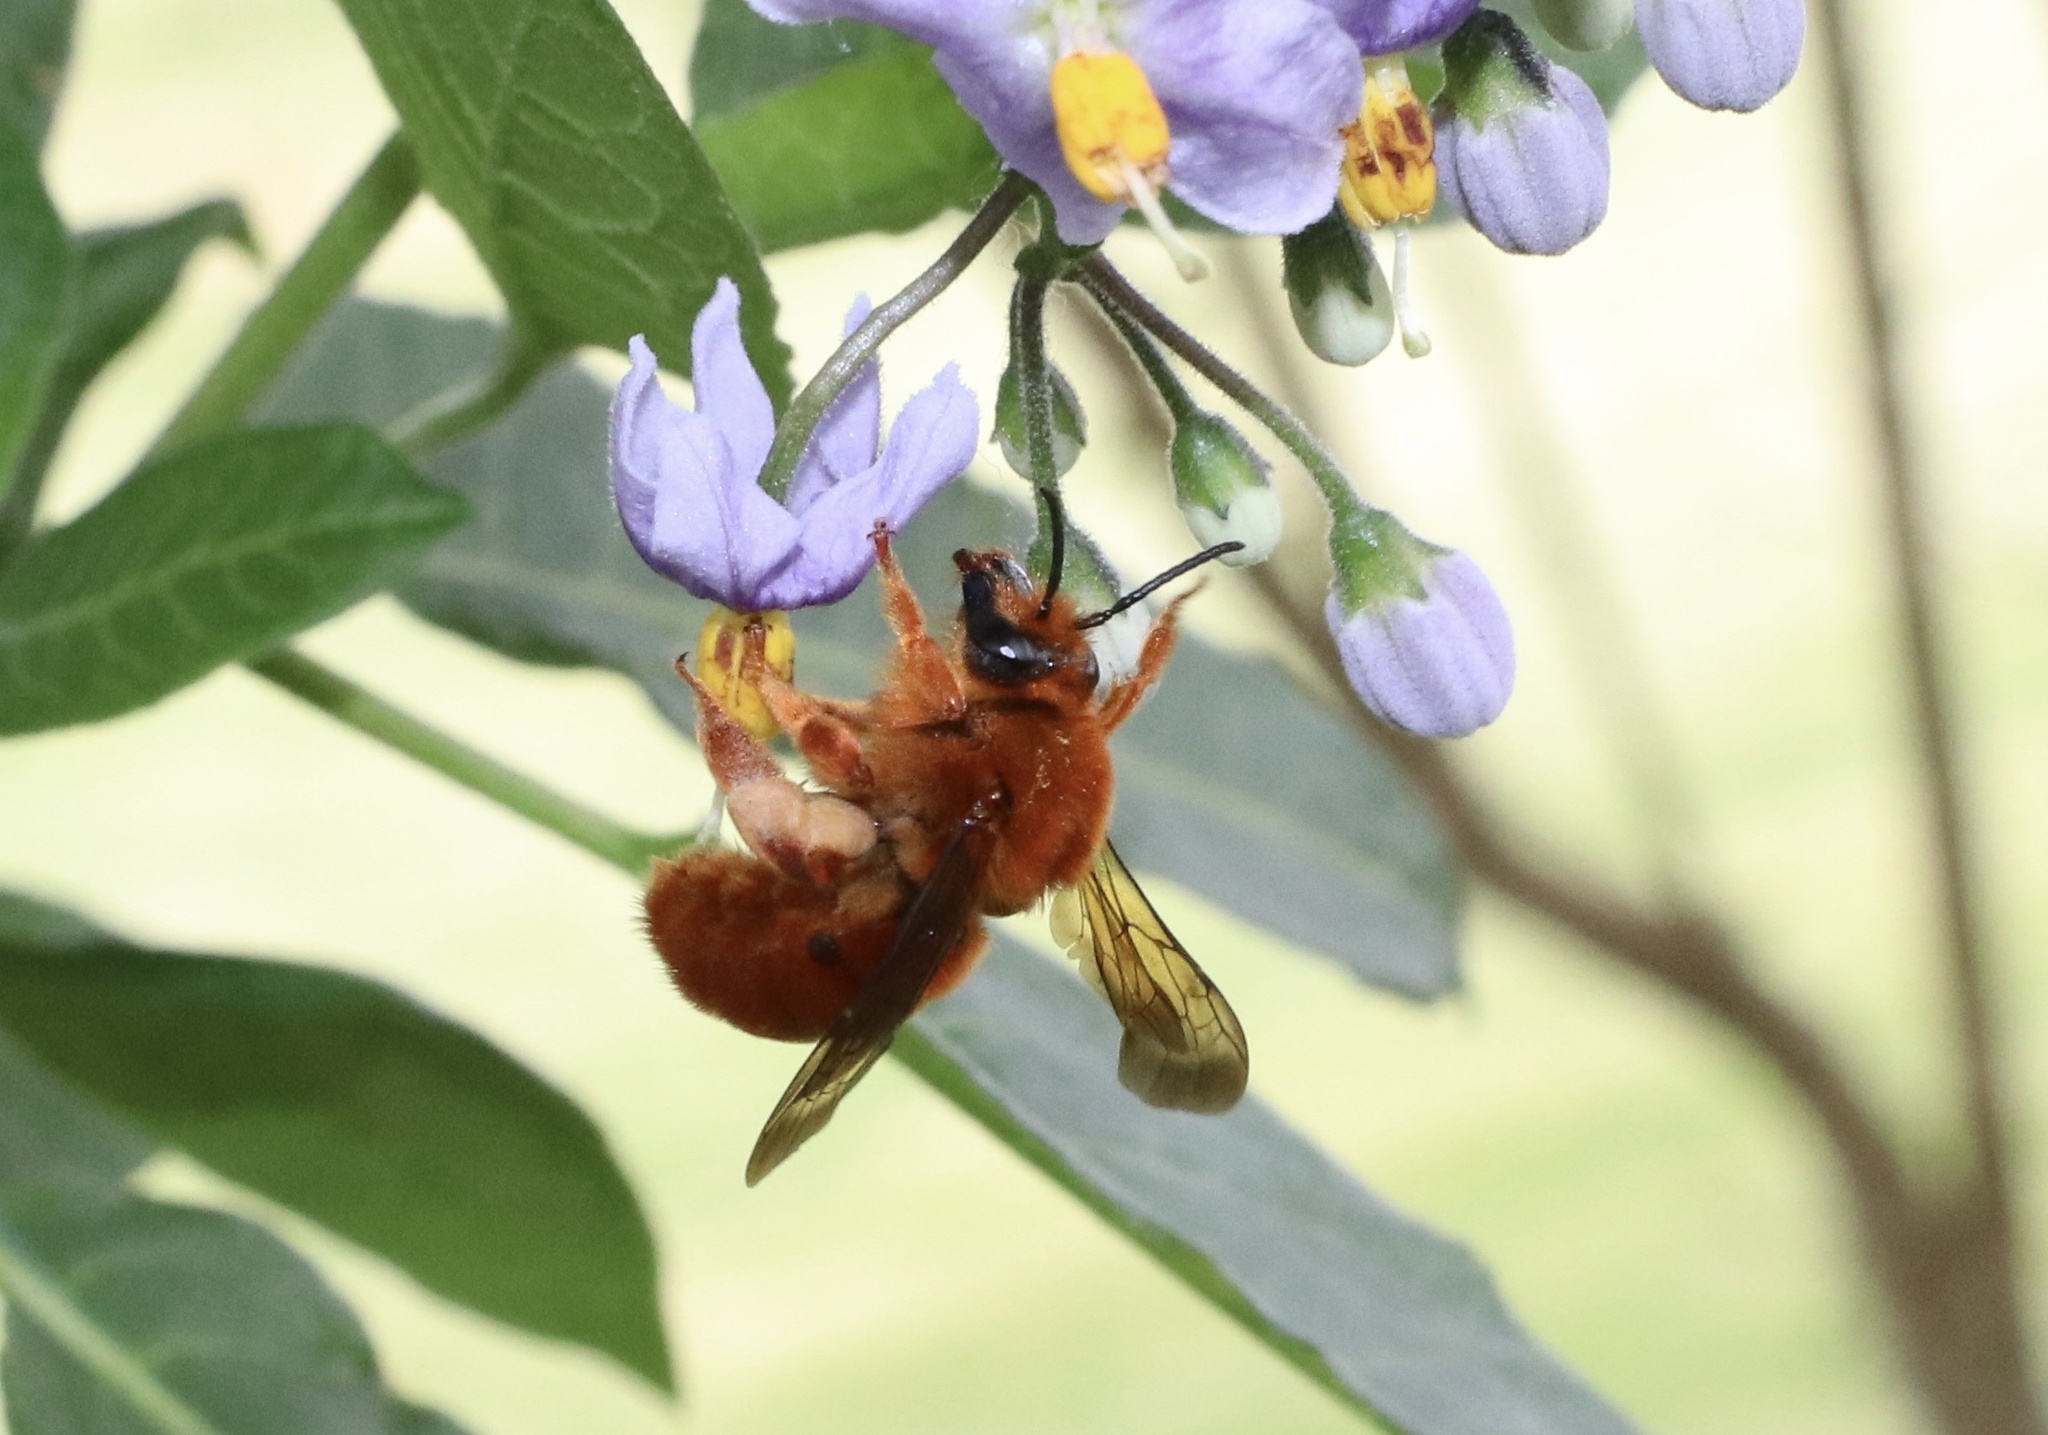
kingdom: Animalia
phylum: Arthropoda
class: Insecta
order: Hymenoptera
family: Colletidae
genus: Diphaglossa
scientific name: Diphaglossa gayi
